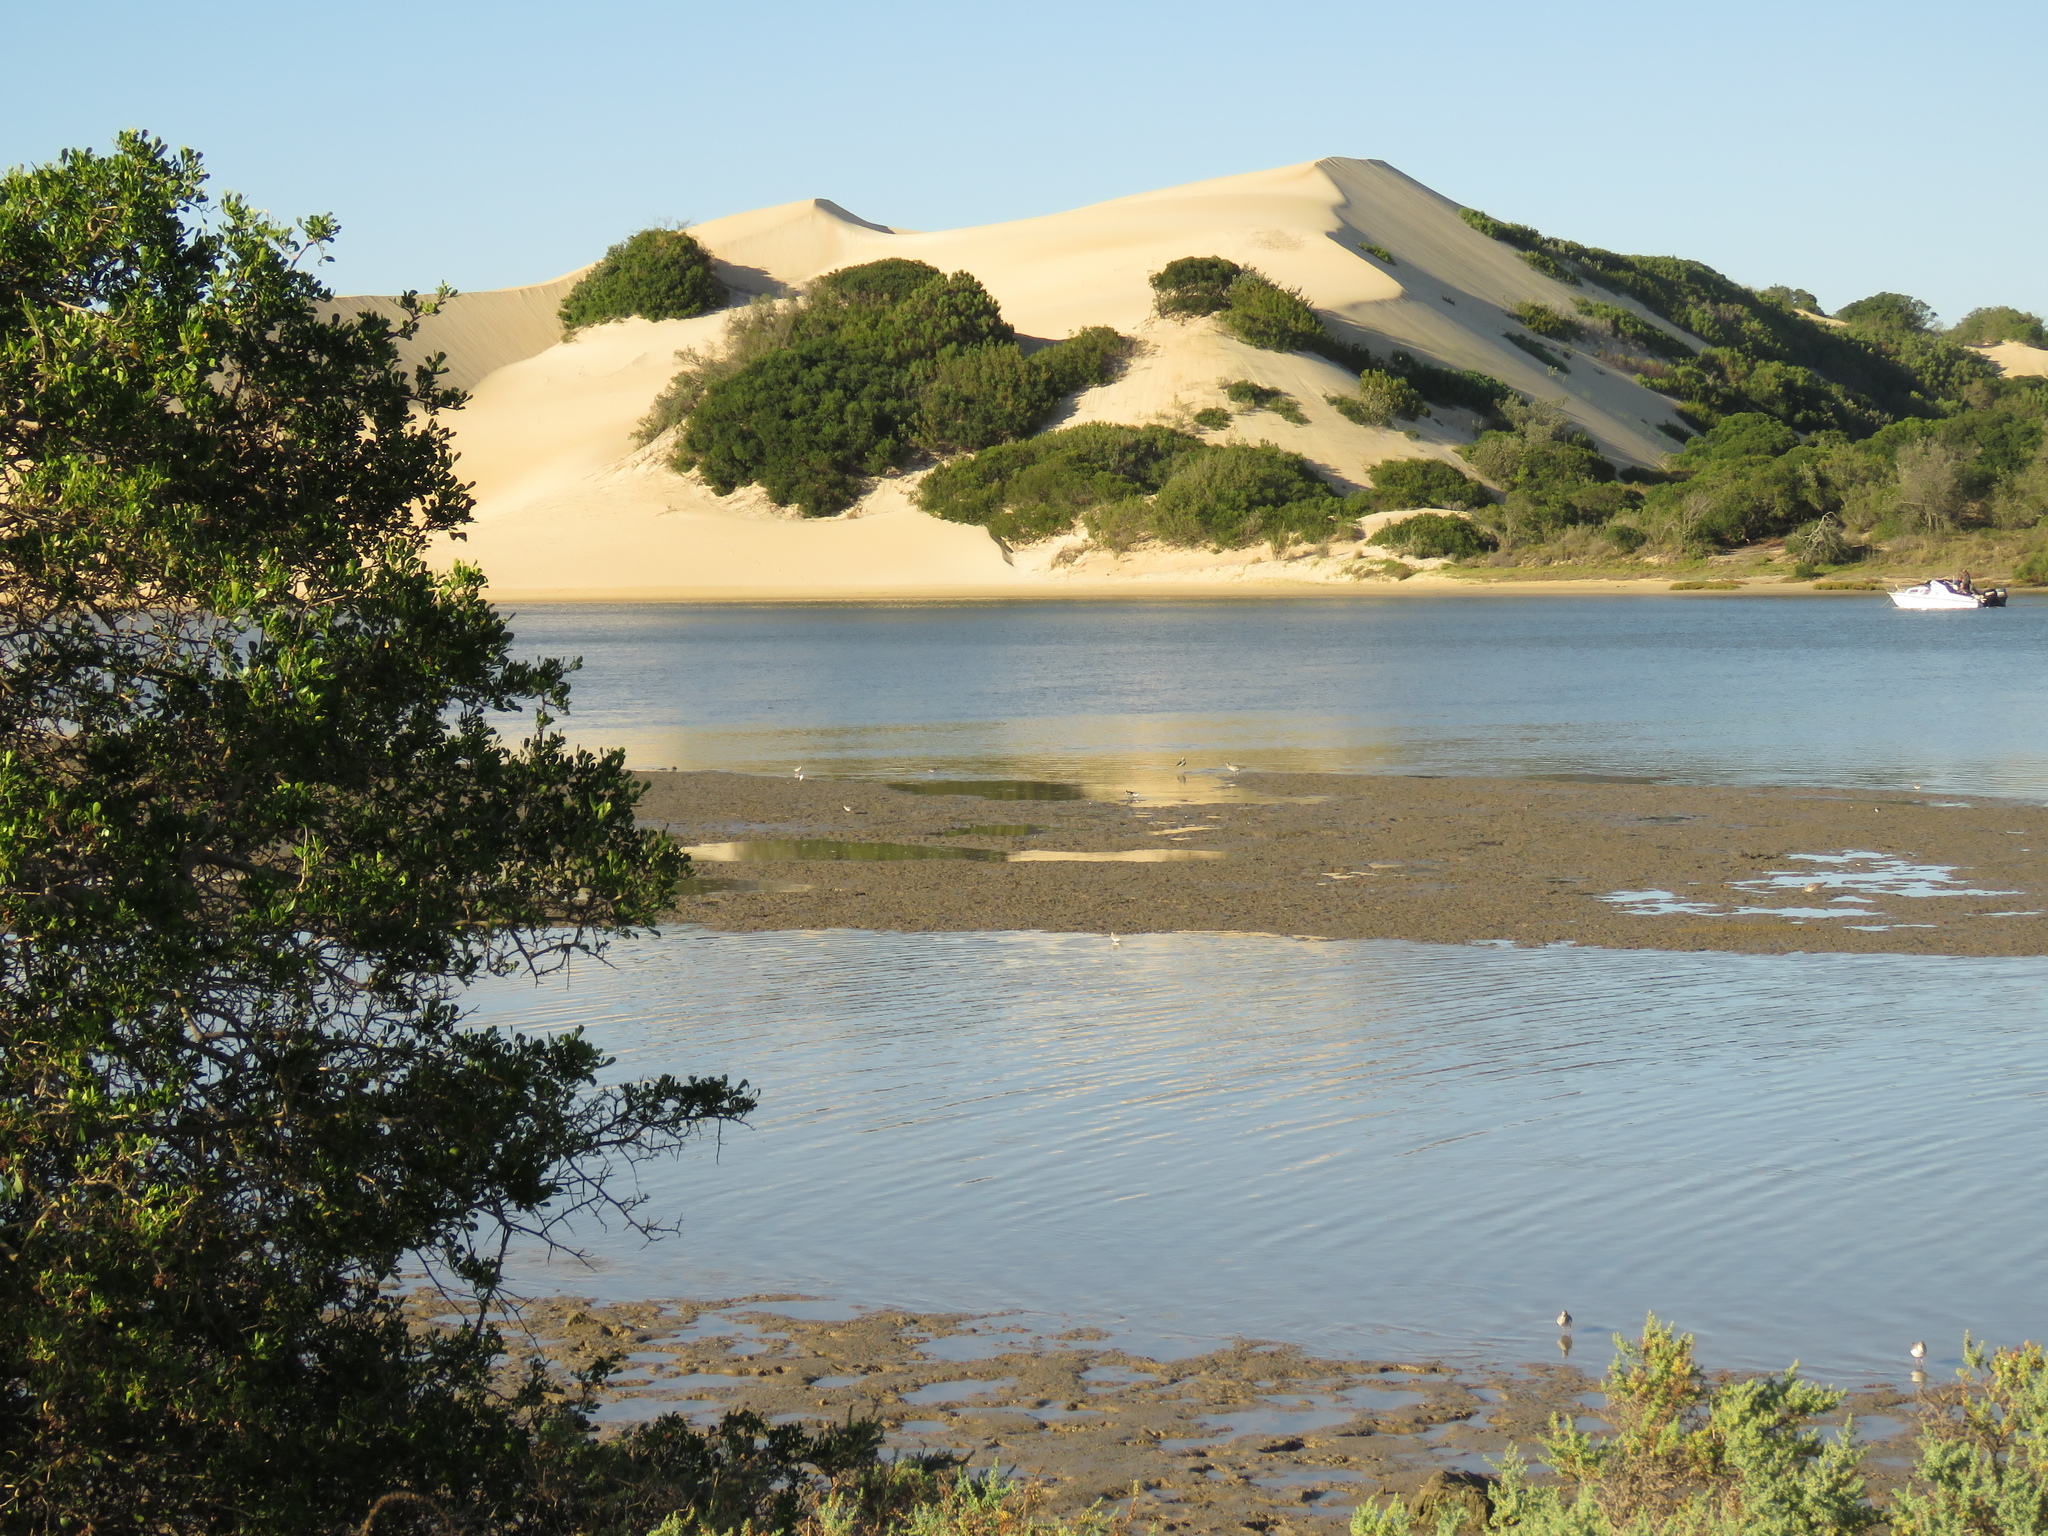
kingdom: Animalia
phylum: Chordata
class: Aves
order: Charadriiformes
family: Scolopacidae
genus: Xenus
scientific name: Xenus cinereus
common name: Terek sandpiper
